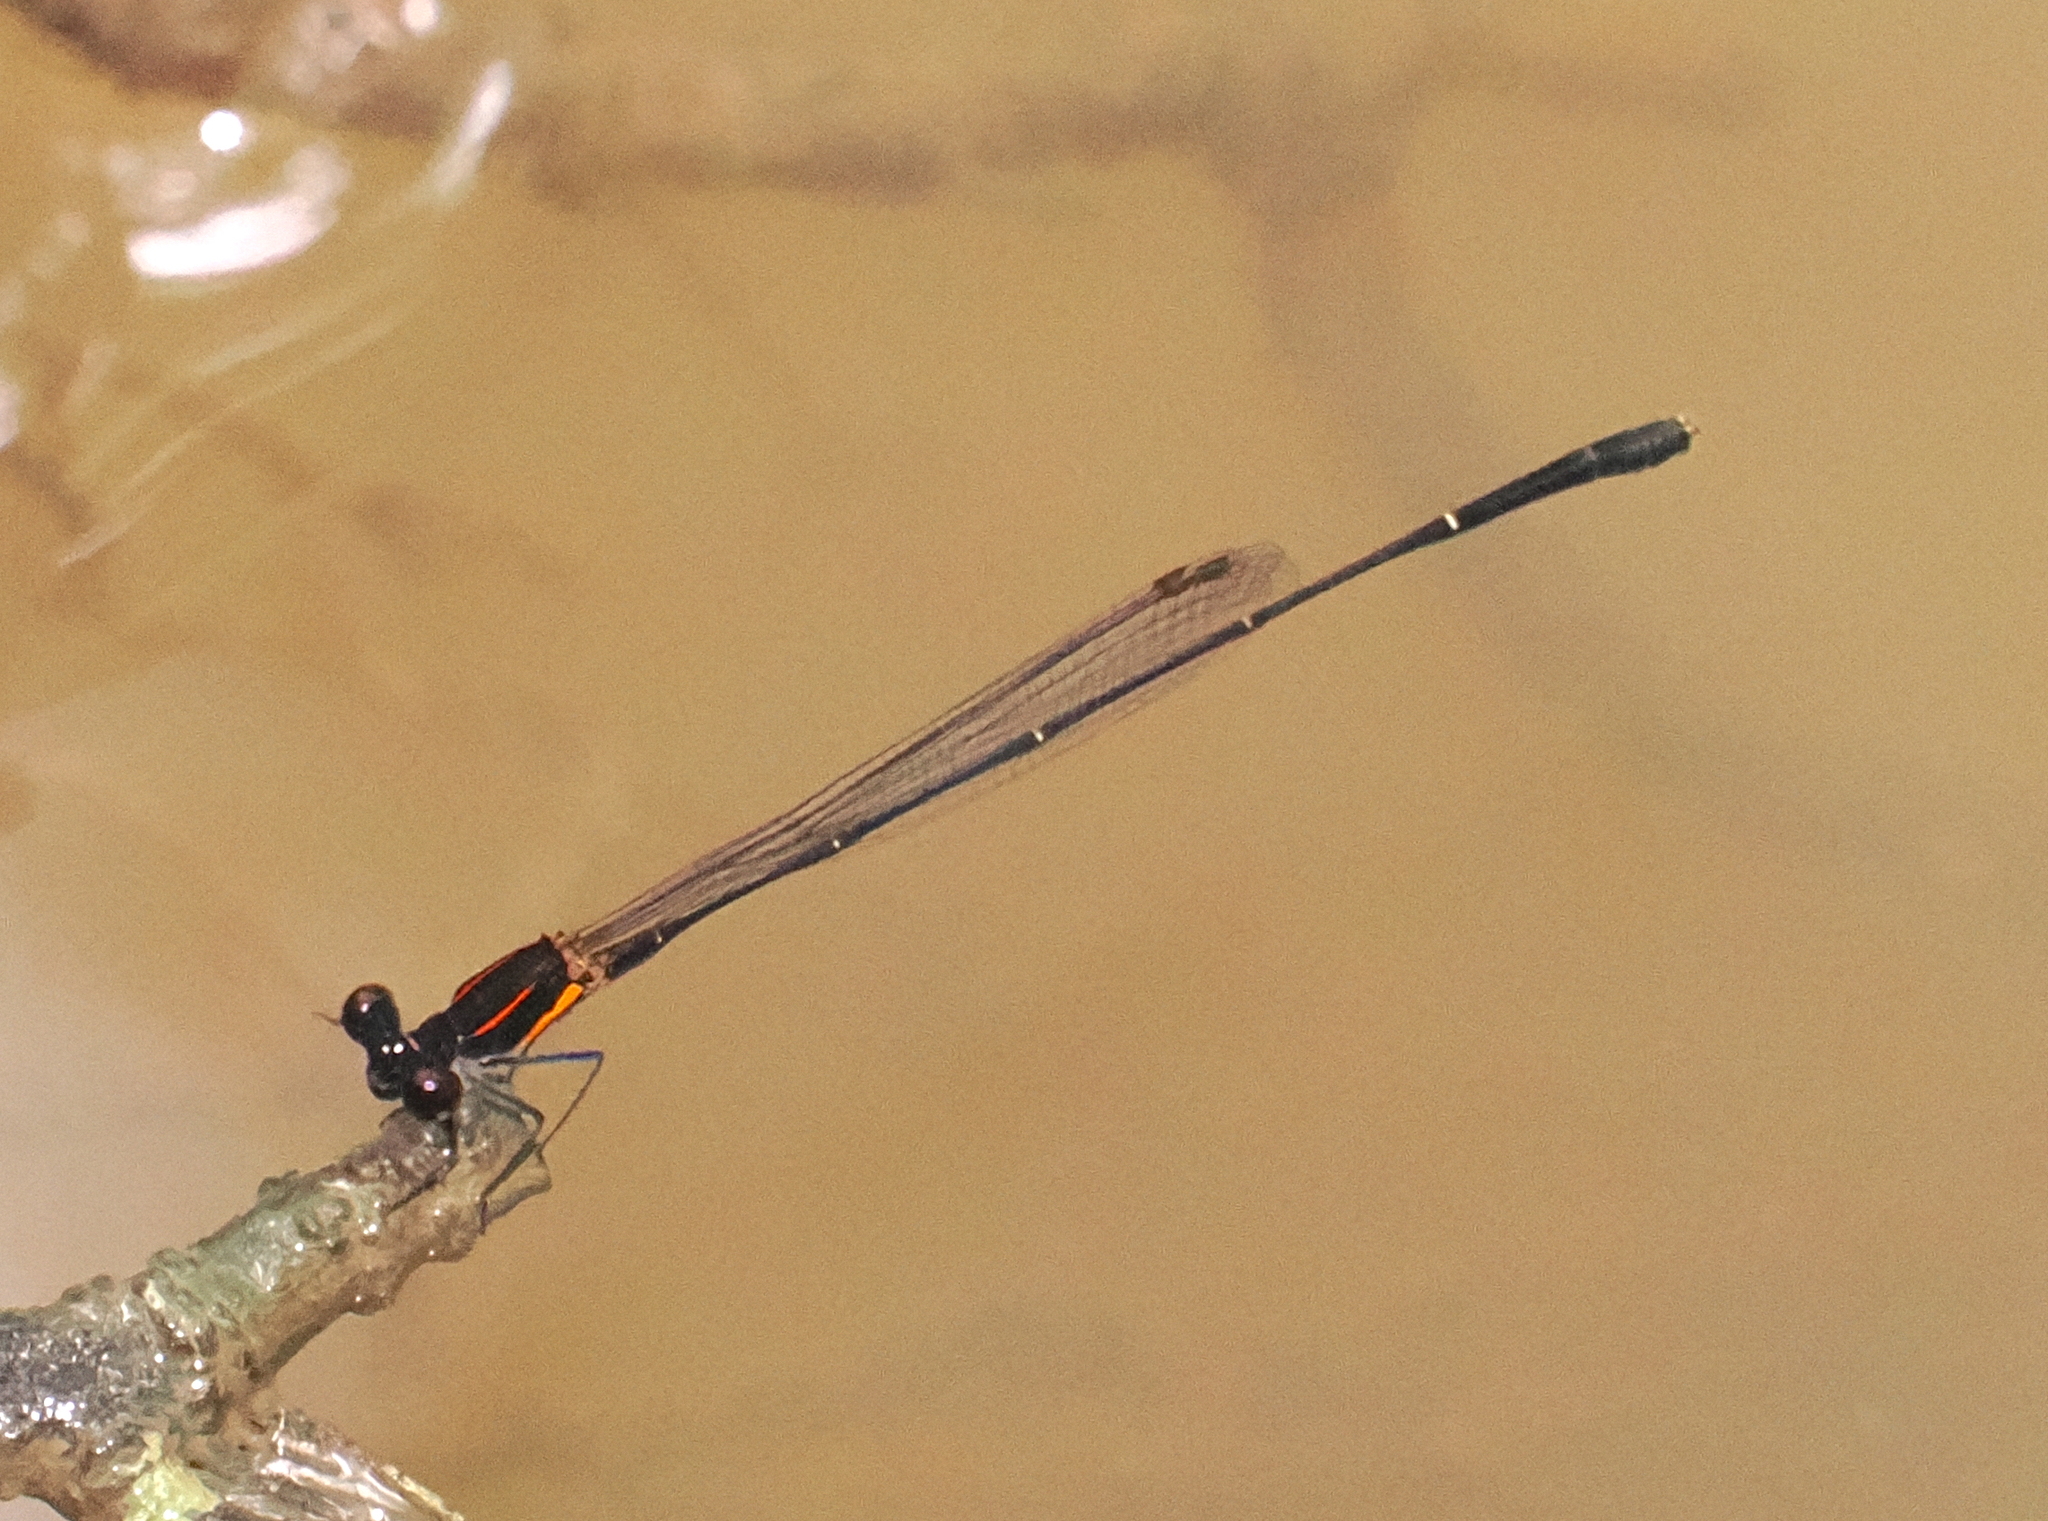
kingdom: Animalia
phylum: Arthropoda
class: Insecta
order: Odonata
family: Platycnemididae
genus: Prodasineura
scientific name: Prodasineura verticalis
